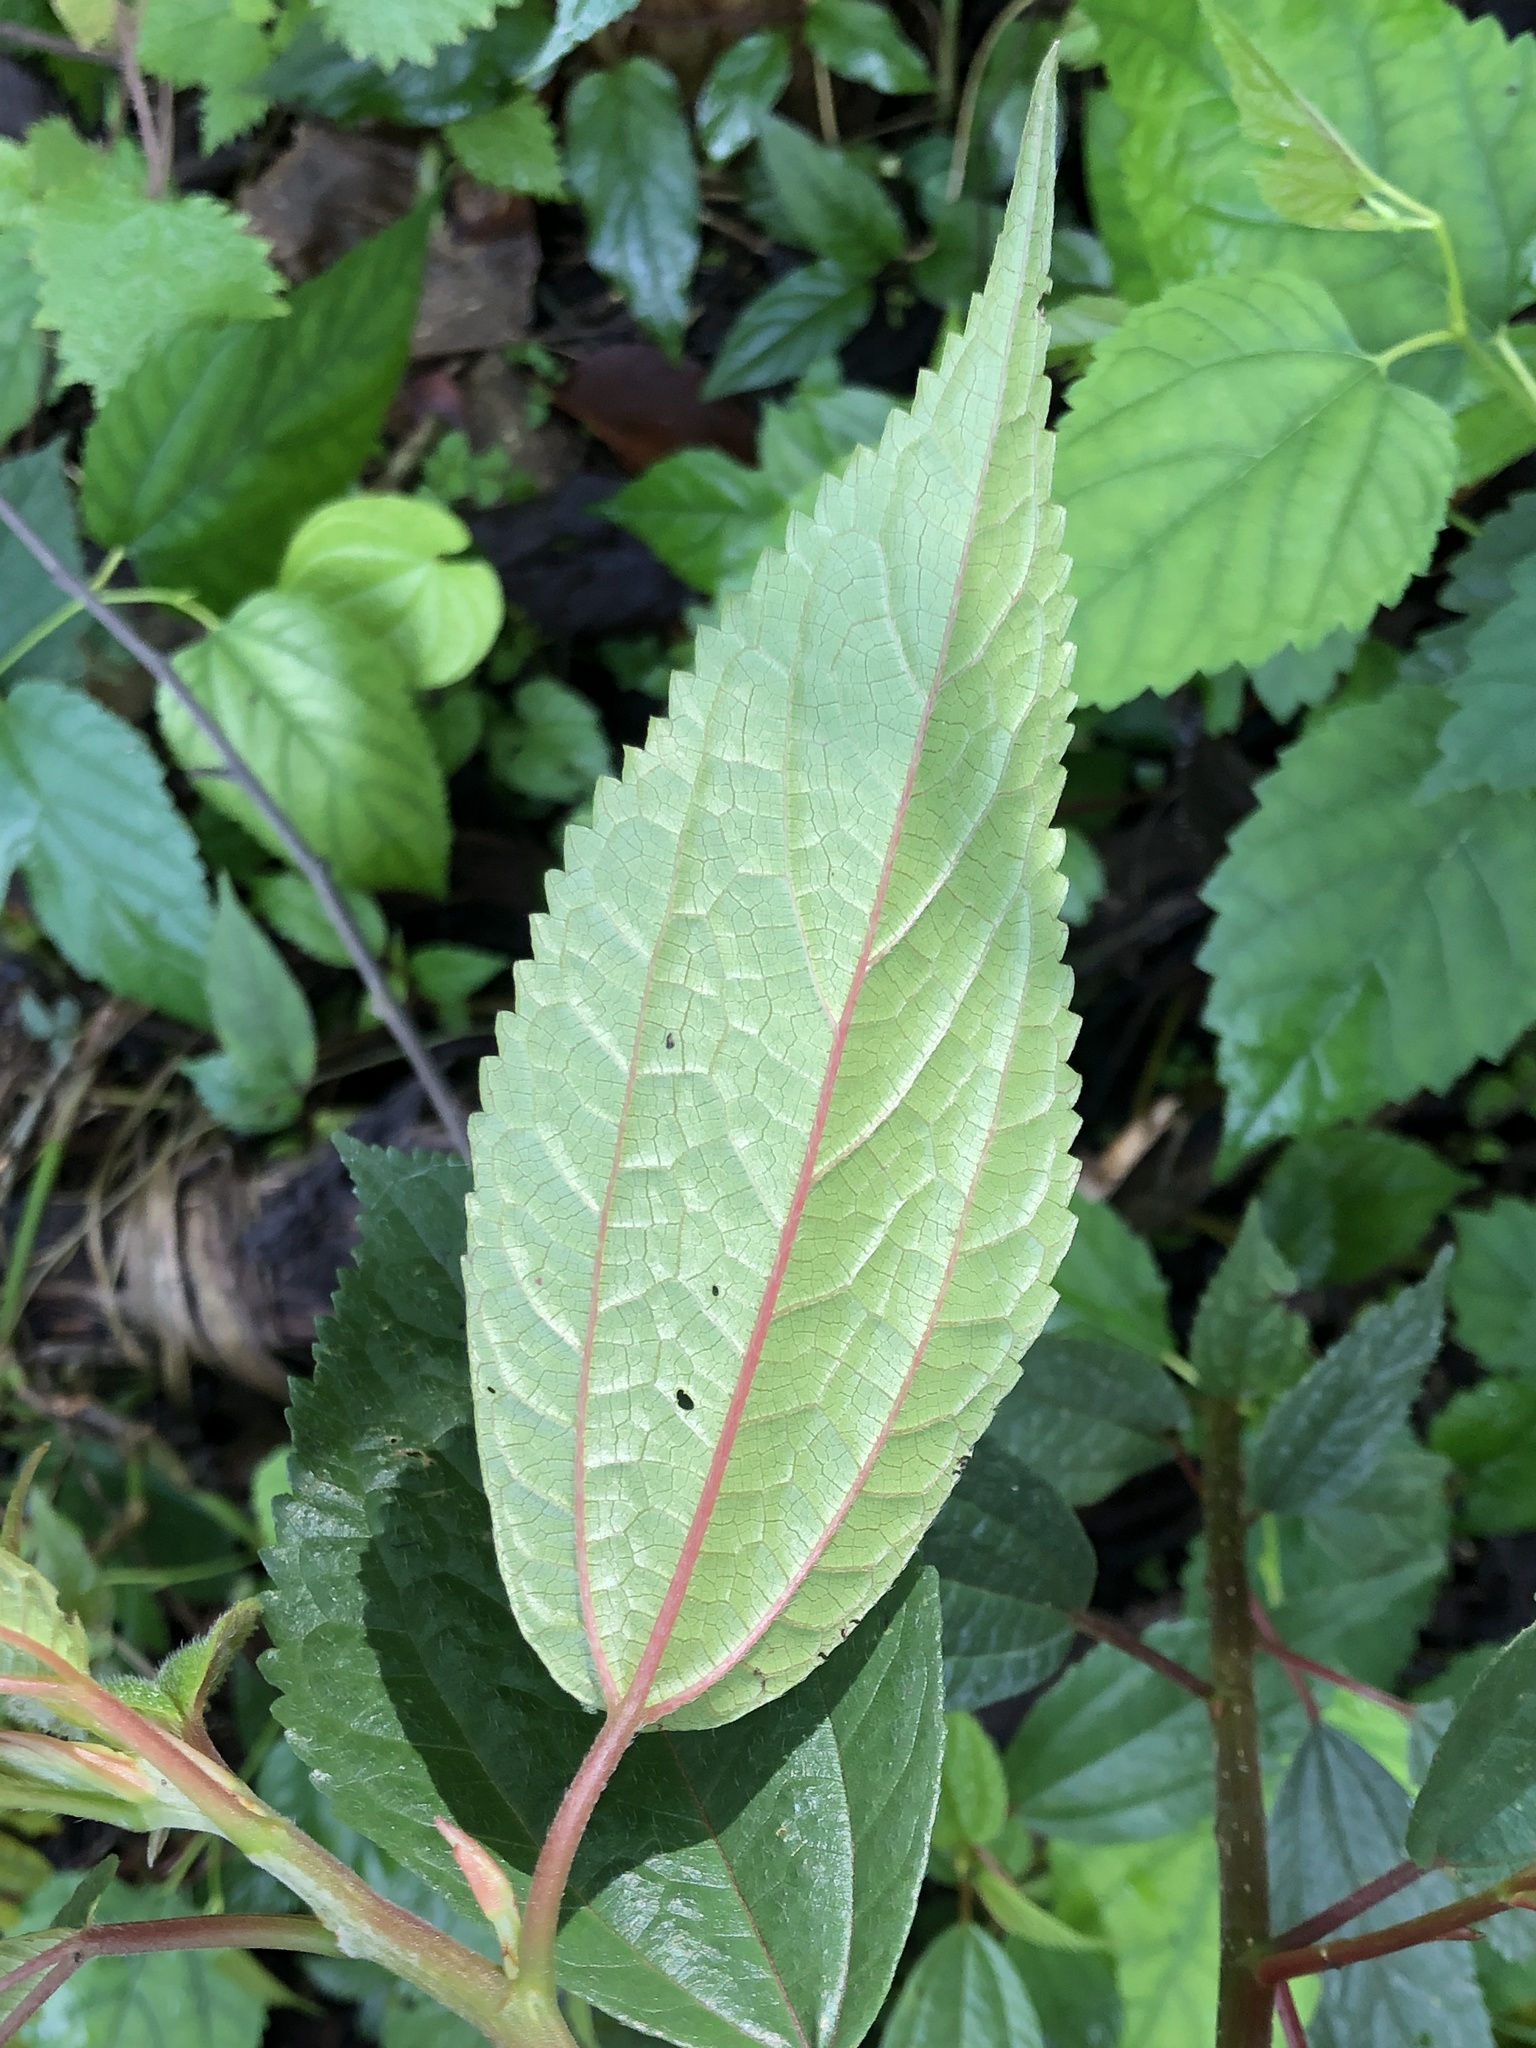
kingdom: Plantae
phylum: Tracheophyta
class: Magnoliopsida
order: Rosales
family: Urticaceae
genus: Oreocnide
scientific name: Oreocnide pedunculata
